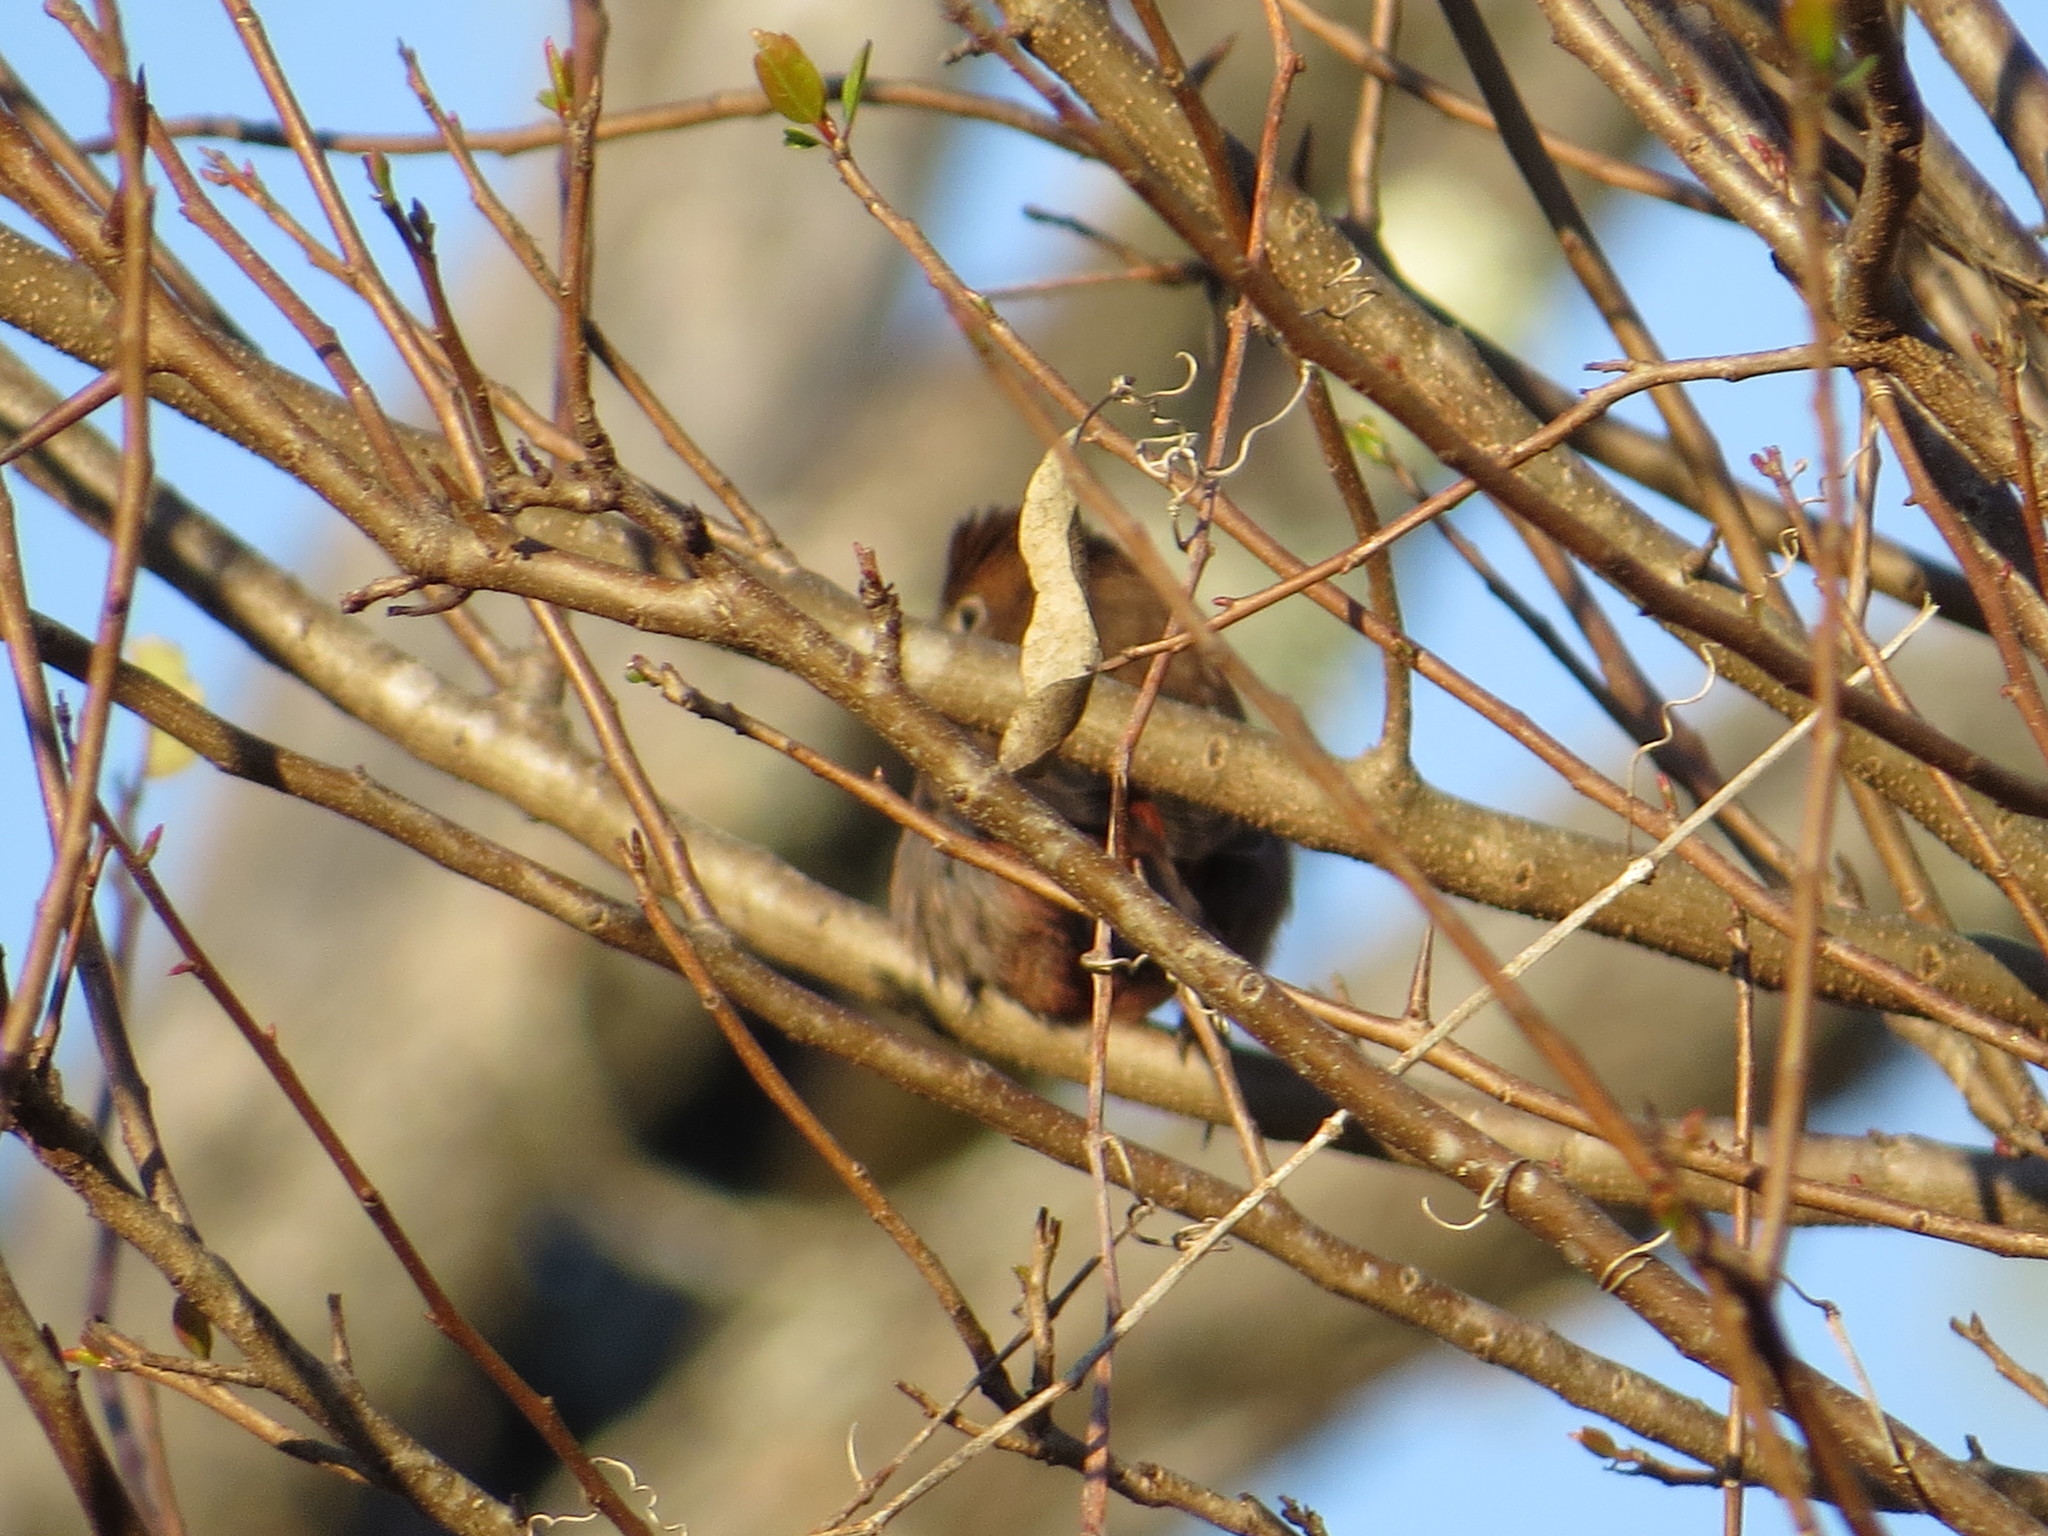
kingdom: Animalia
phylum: Chordata
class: Aves
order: Passeriformes
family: Thraupidae
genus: Coryphospingus
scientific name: Coryphospingus cucullatus
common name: Red pileated finch
